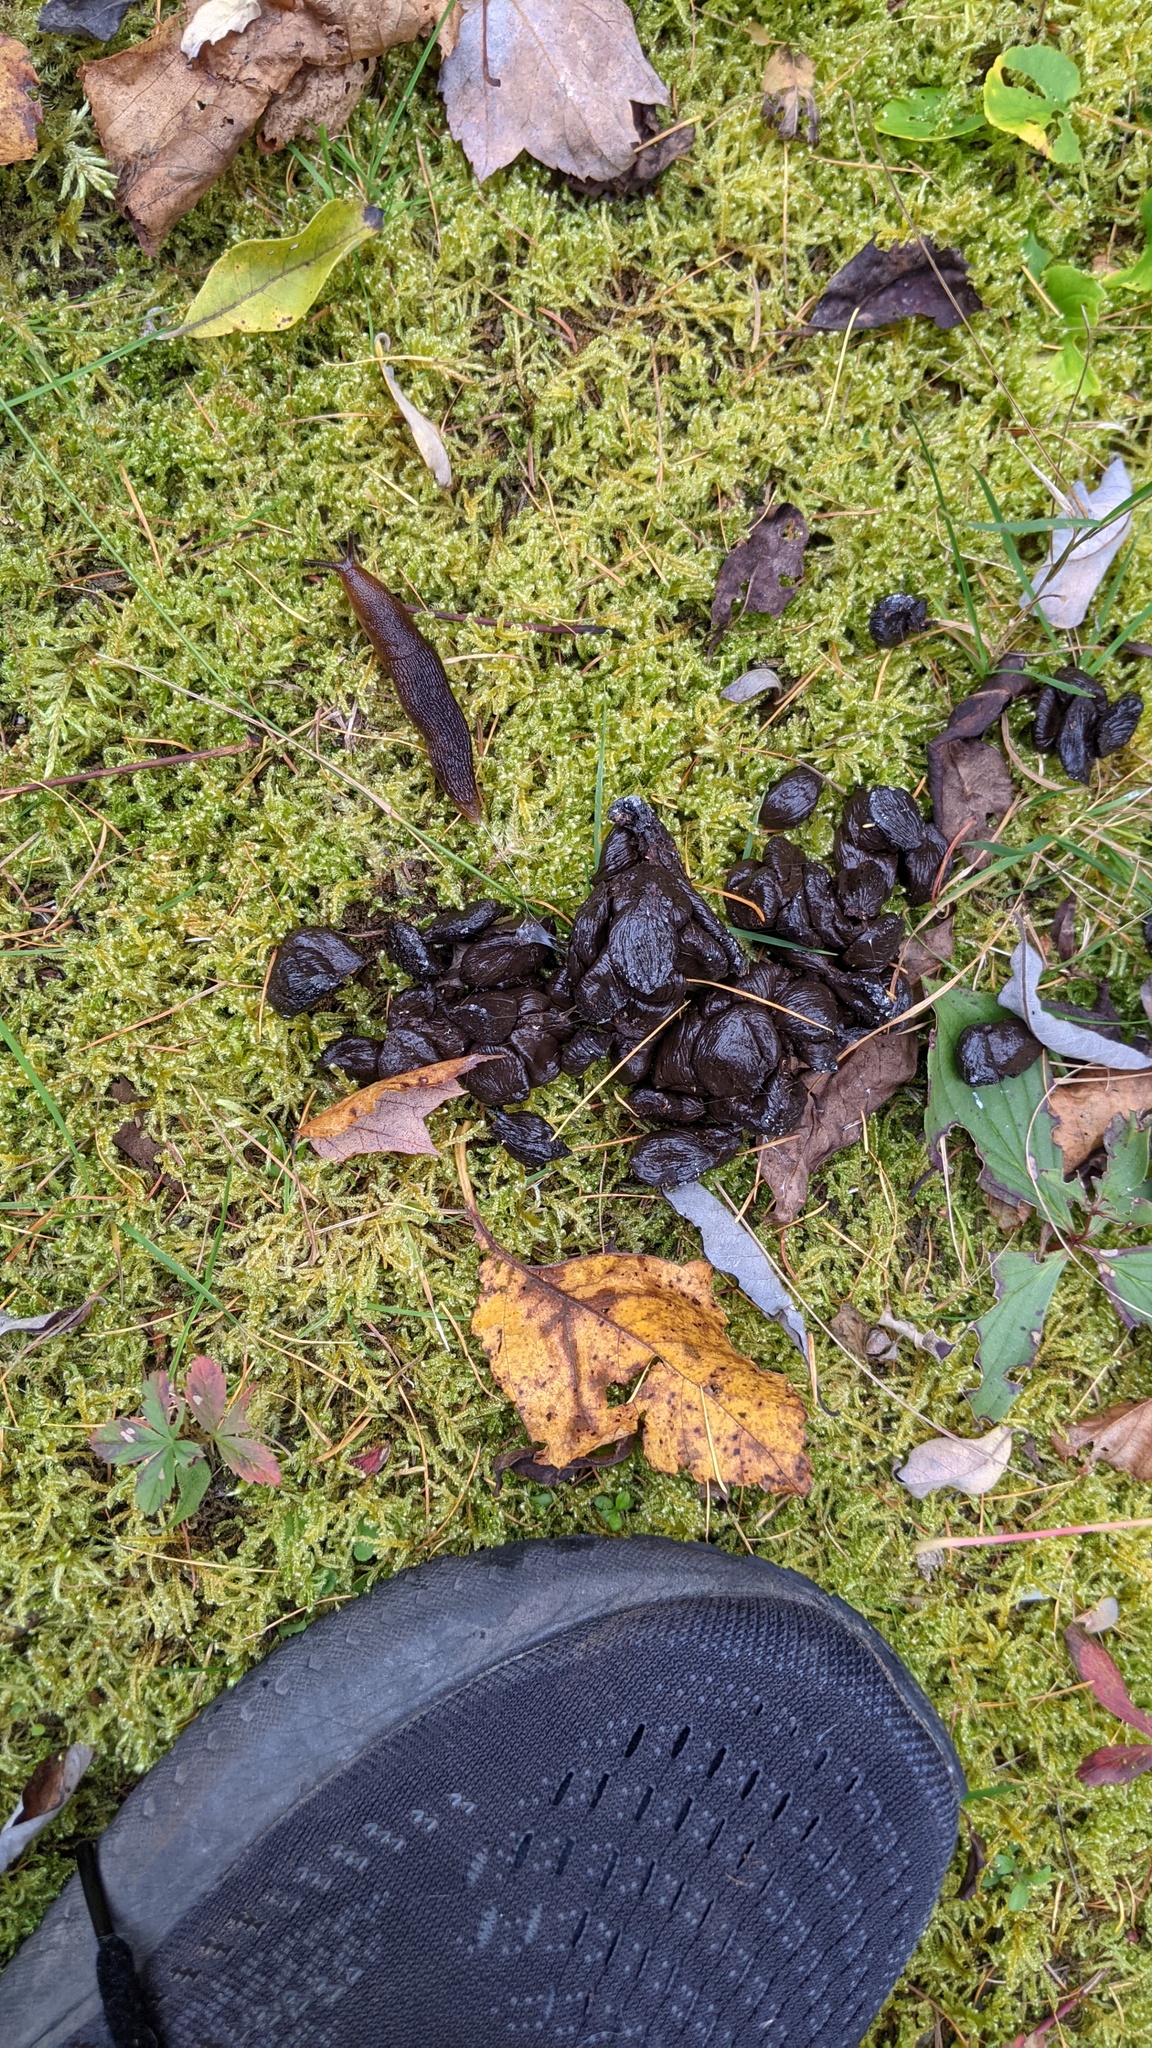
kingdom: Animalia
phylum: Chordata
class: Mammalia
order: Artiodactyla
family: Cervidae
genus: Odocoileus
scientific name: Odocoileus virginianus
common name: White-tailed deer
